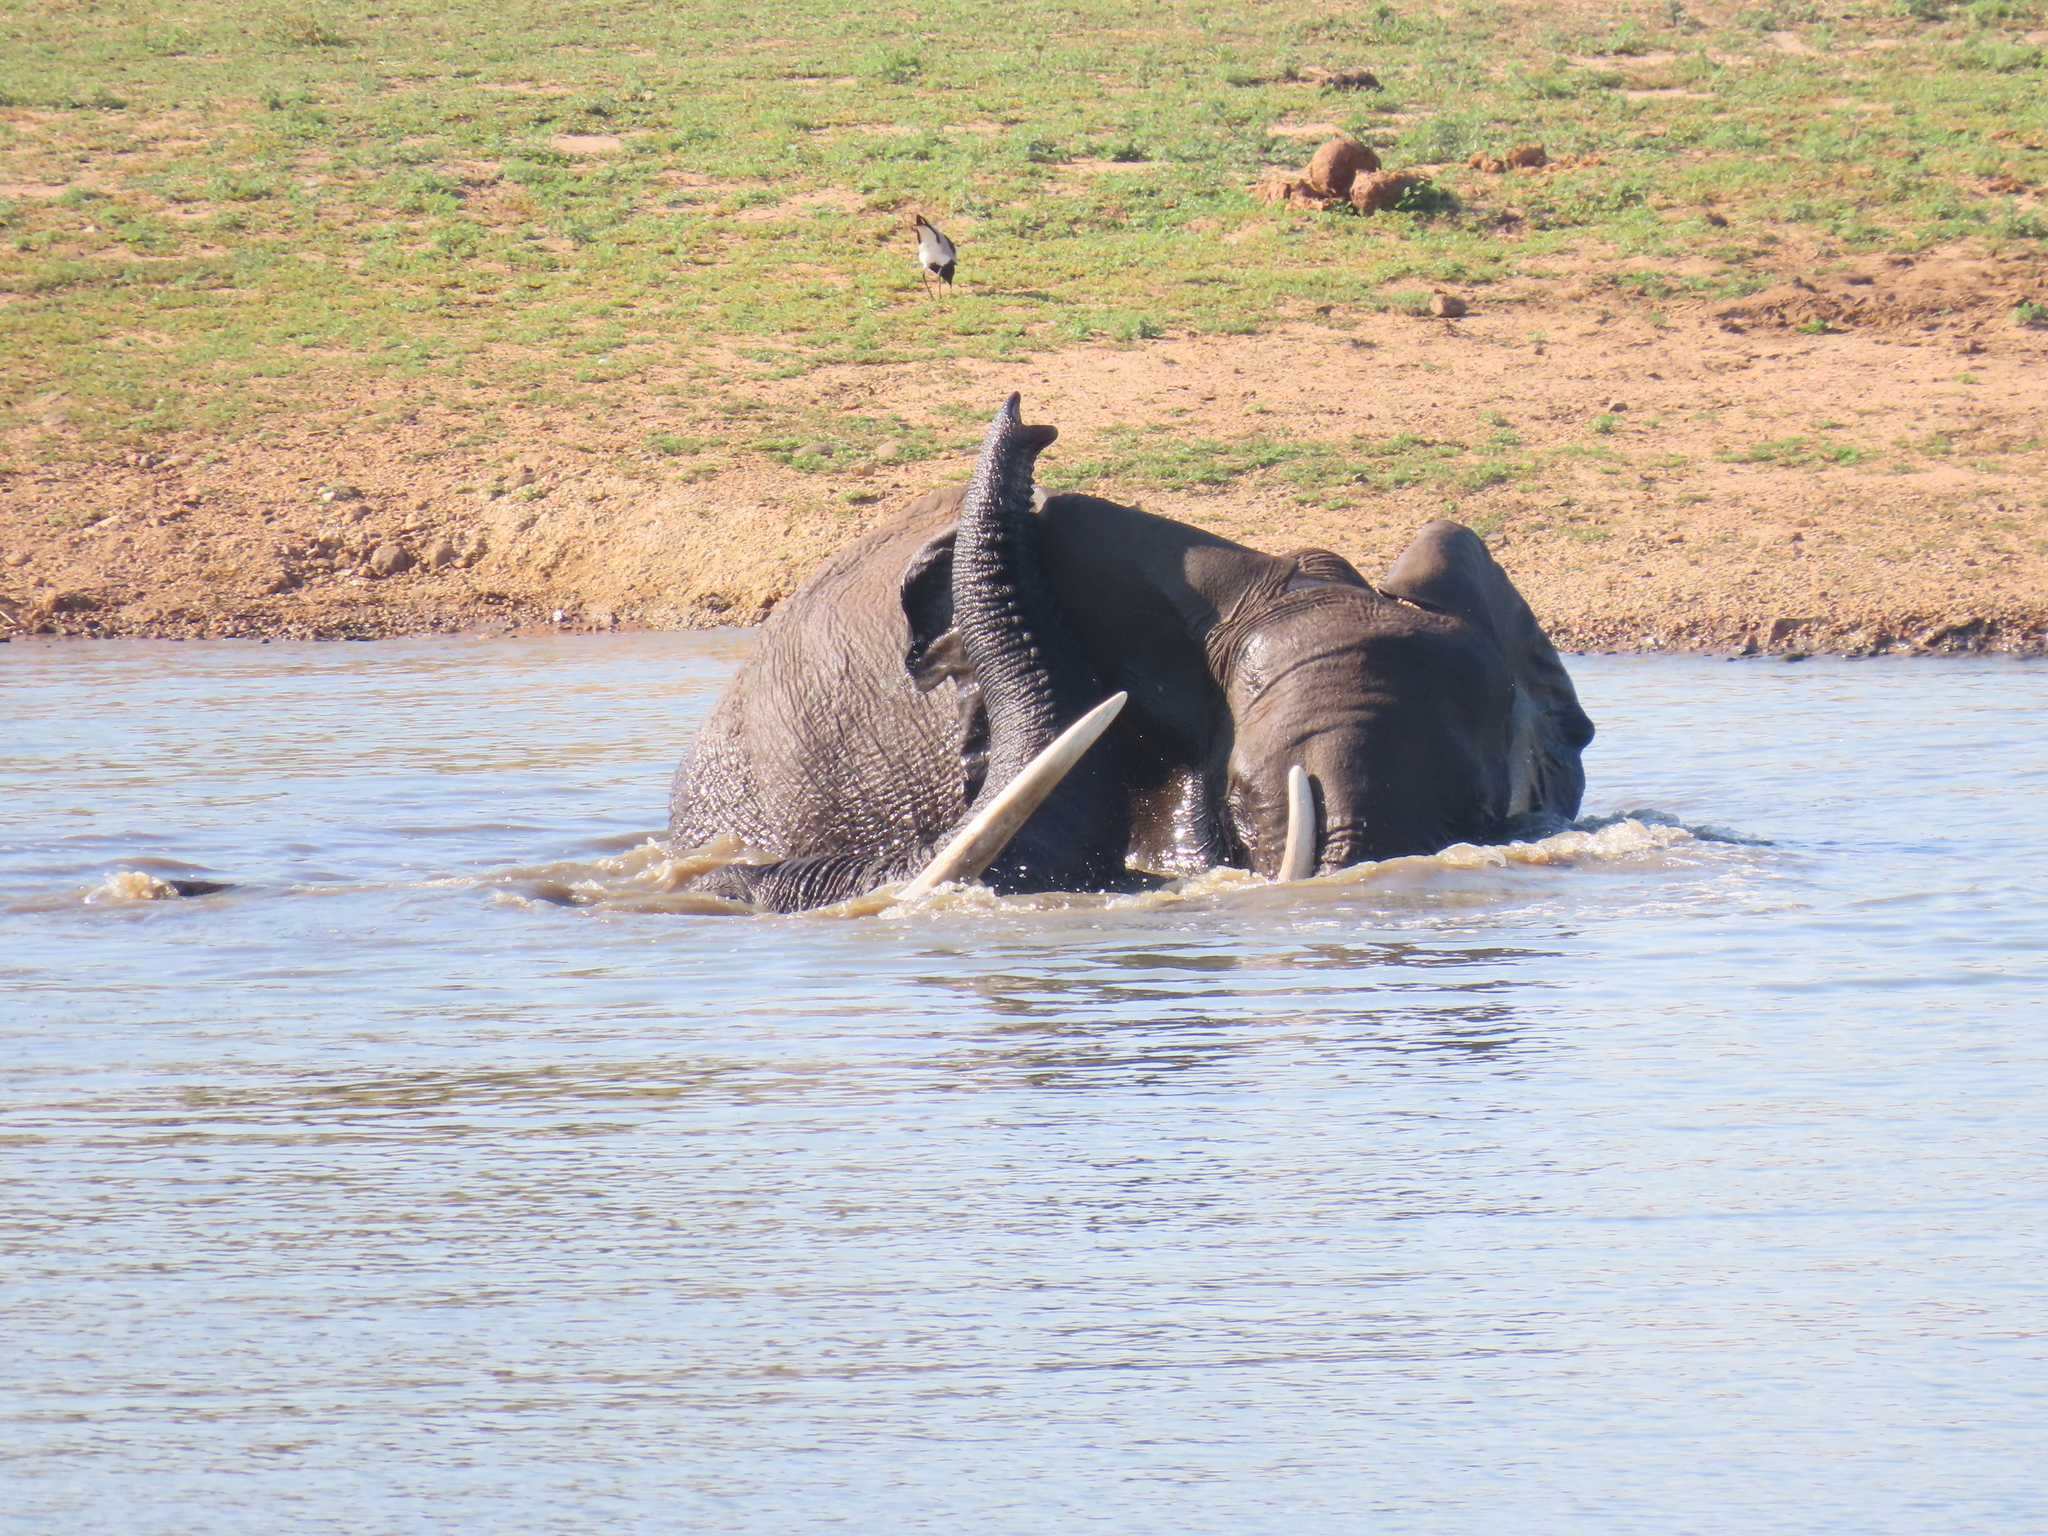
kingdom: Animalia
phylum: Chordata
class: Mammalia
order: Proboscidea
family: Elephantidae
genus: Loxodonta
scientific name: Loxodonta africana
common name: African elephant
